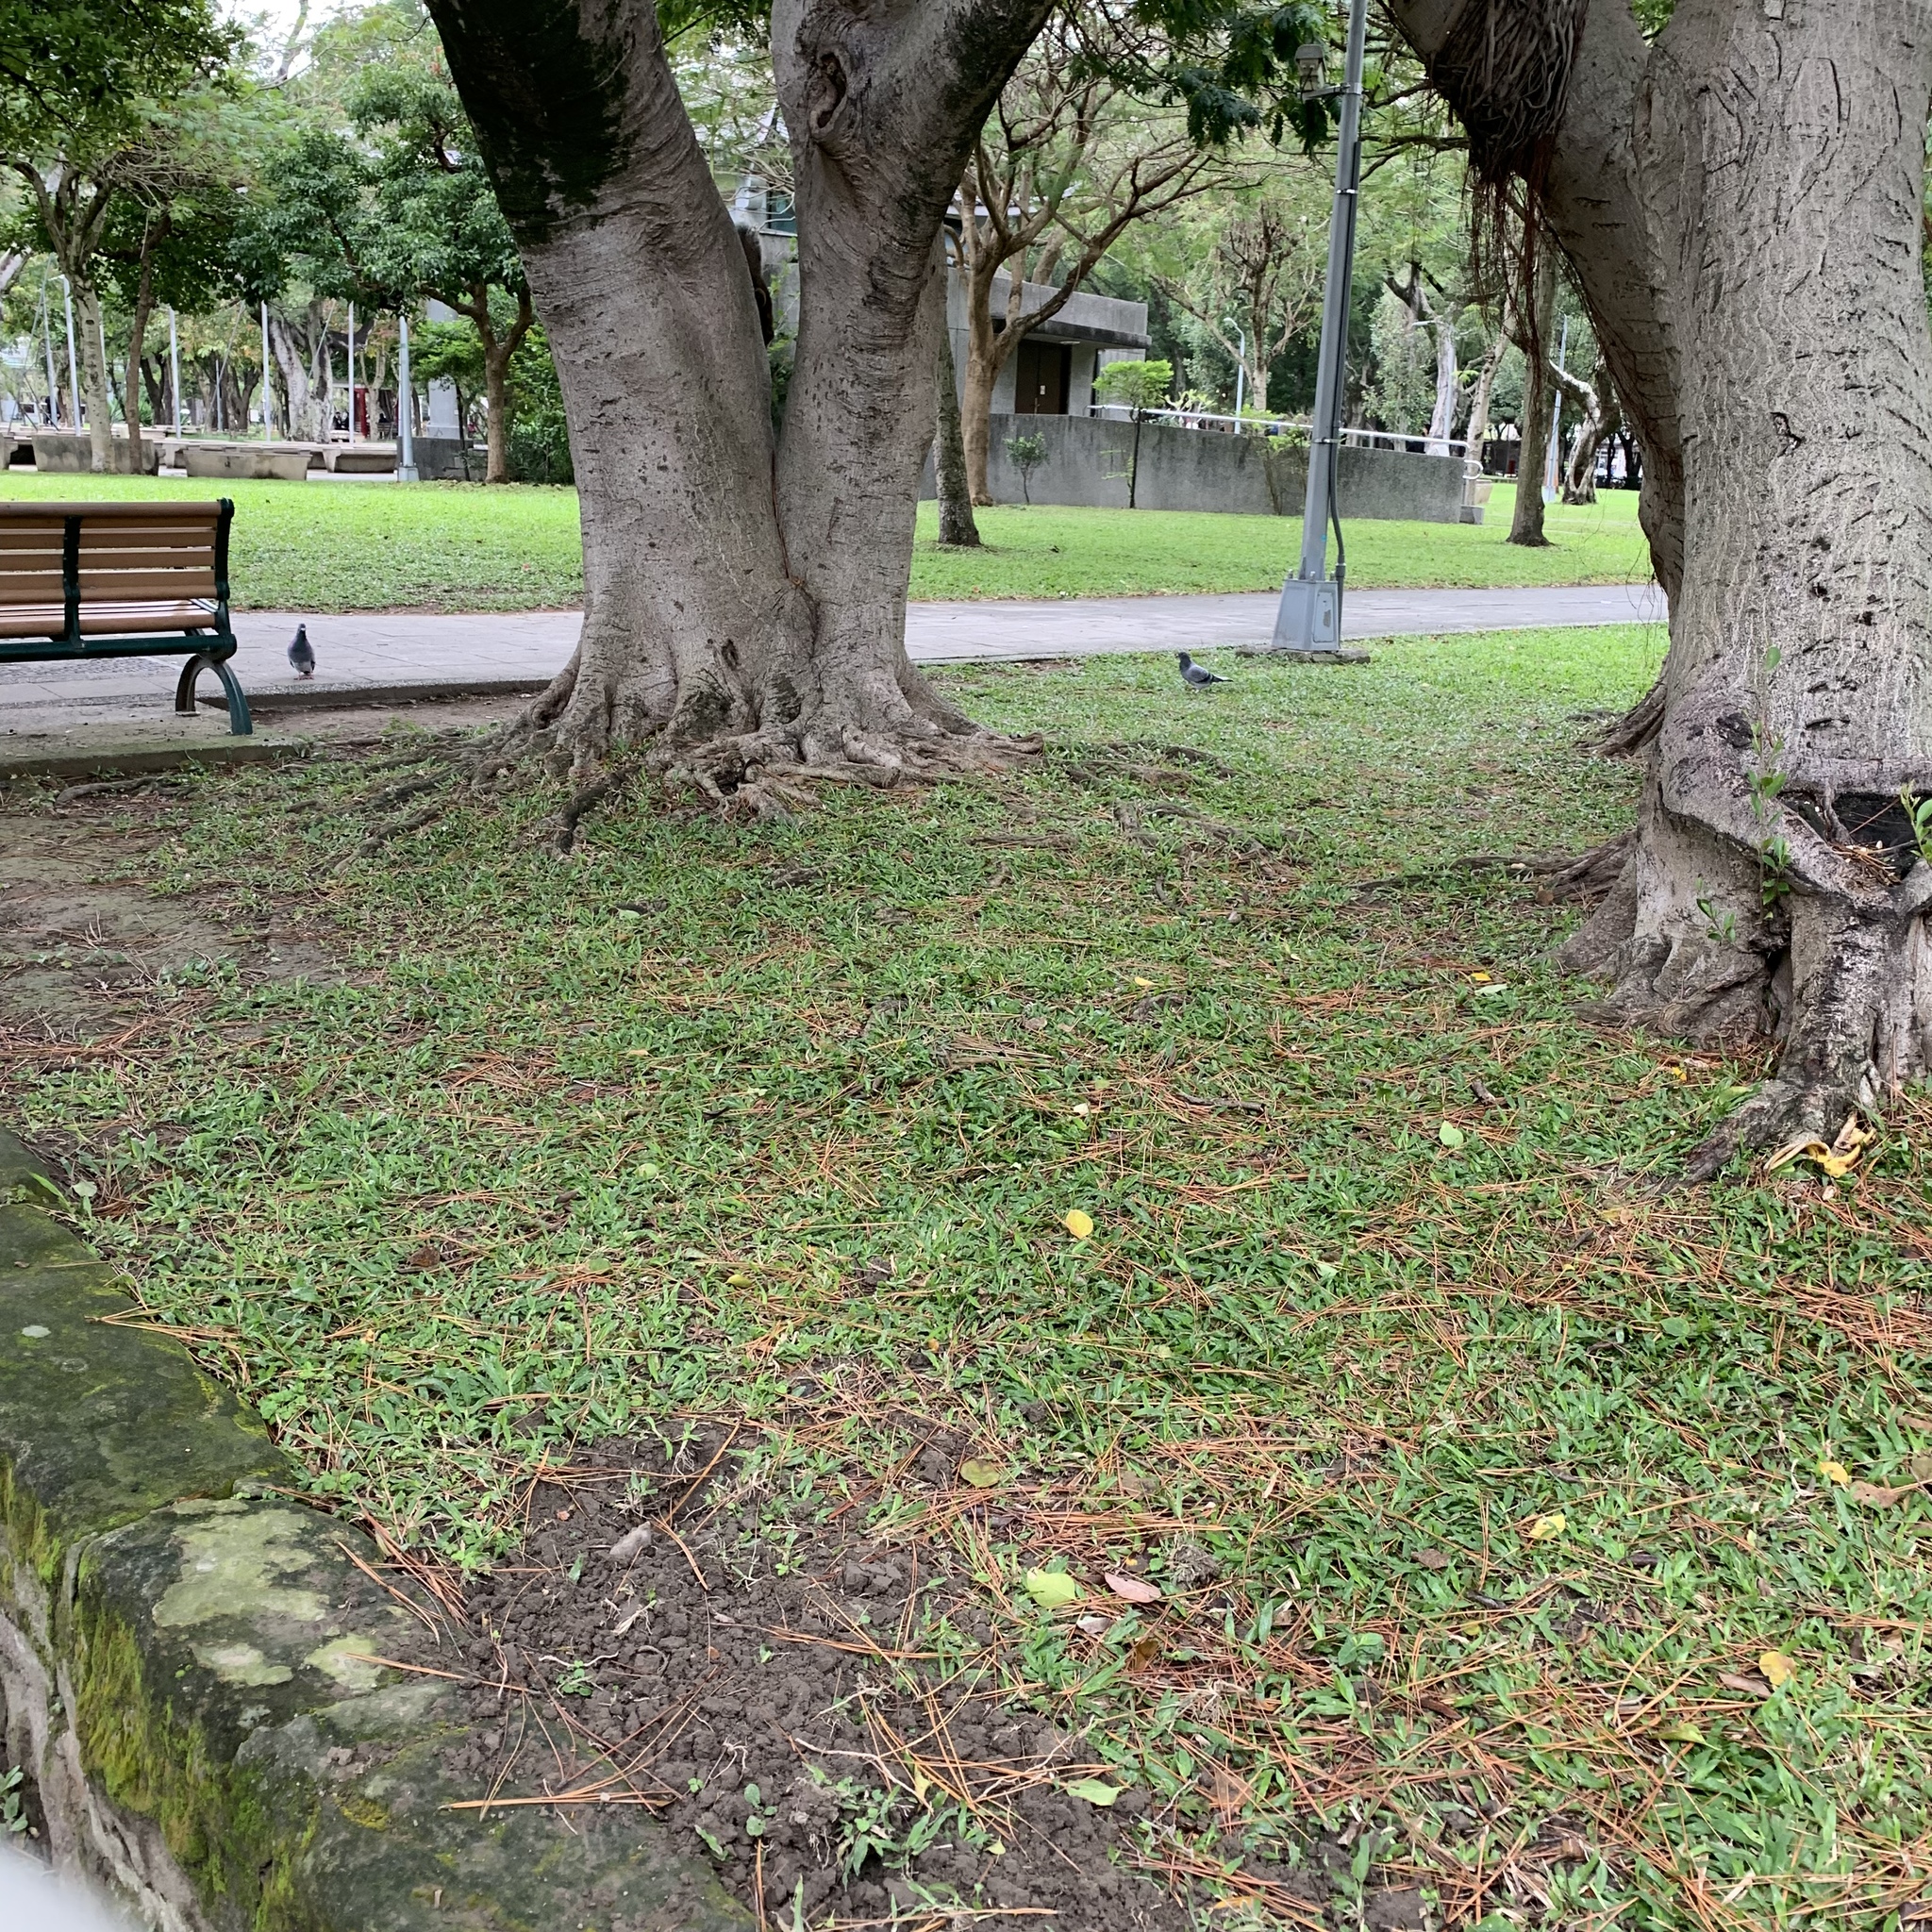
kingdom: Animalia
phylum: Chordata
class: Aves
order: Columbiformes
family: Columbidae
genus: Columba
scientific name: Columba livia
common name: Rock pigeon
